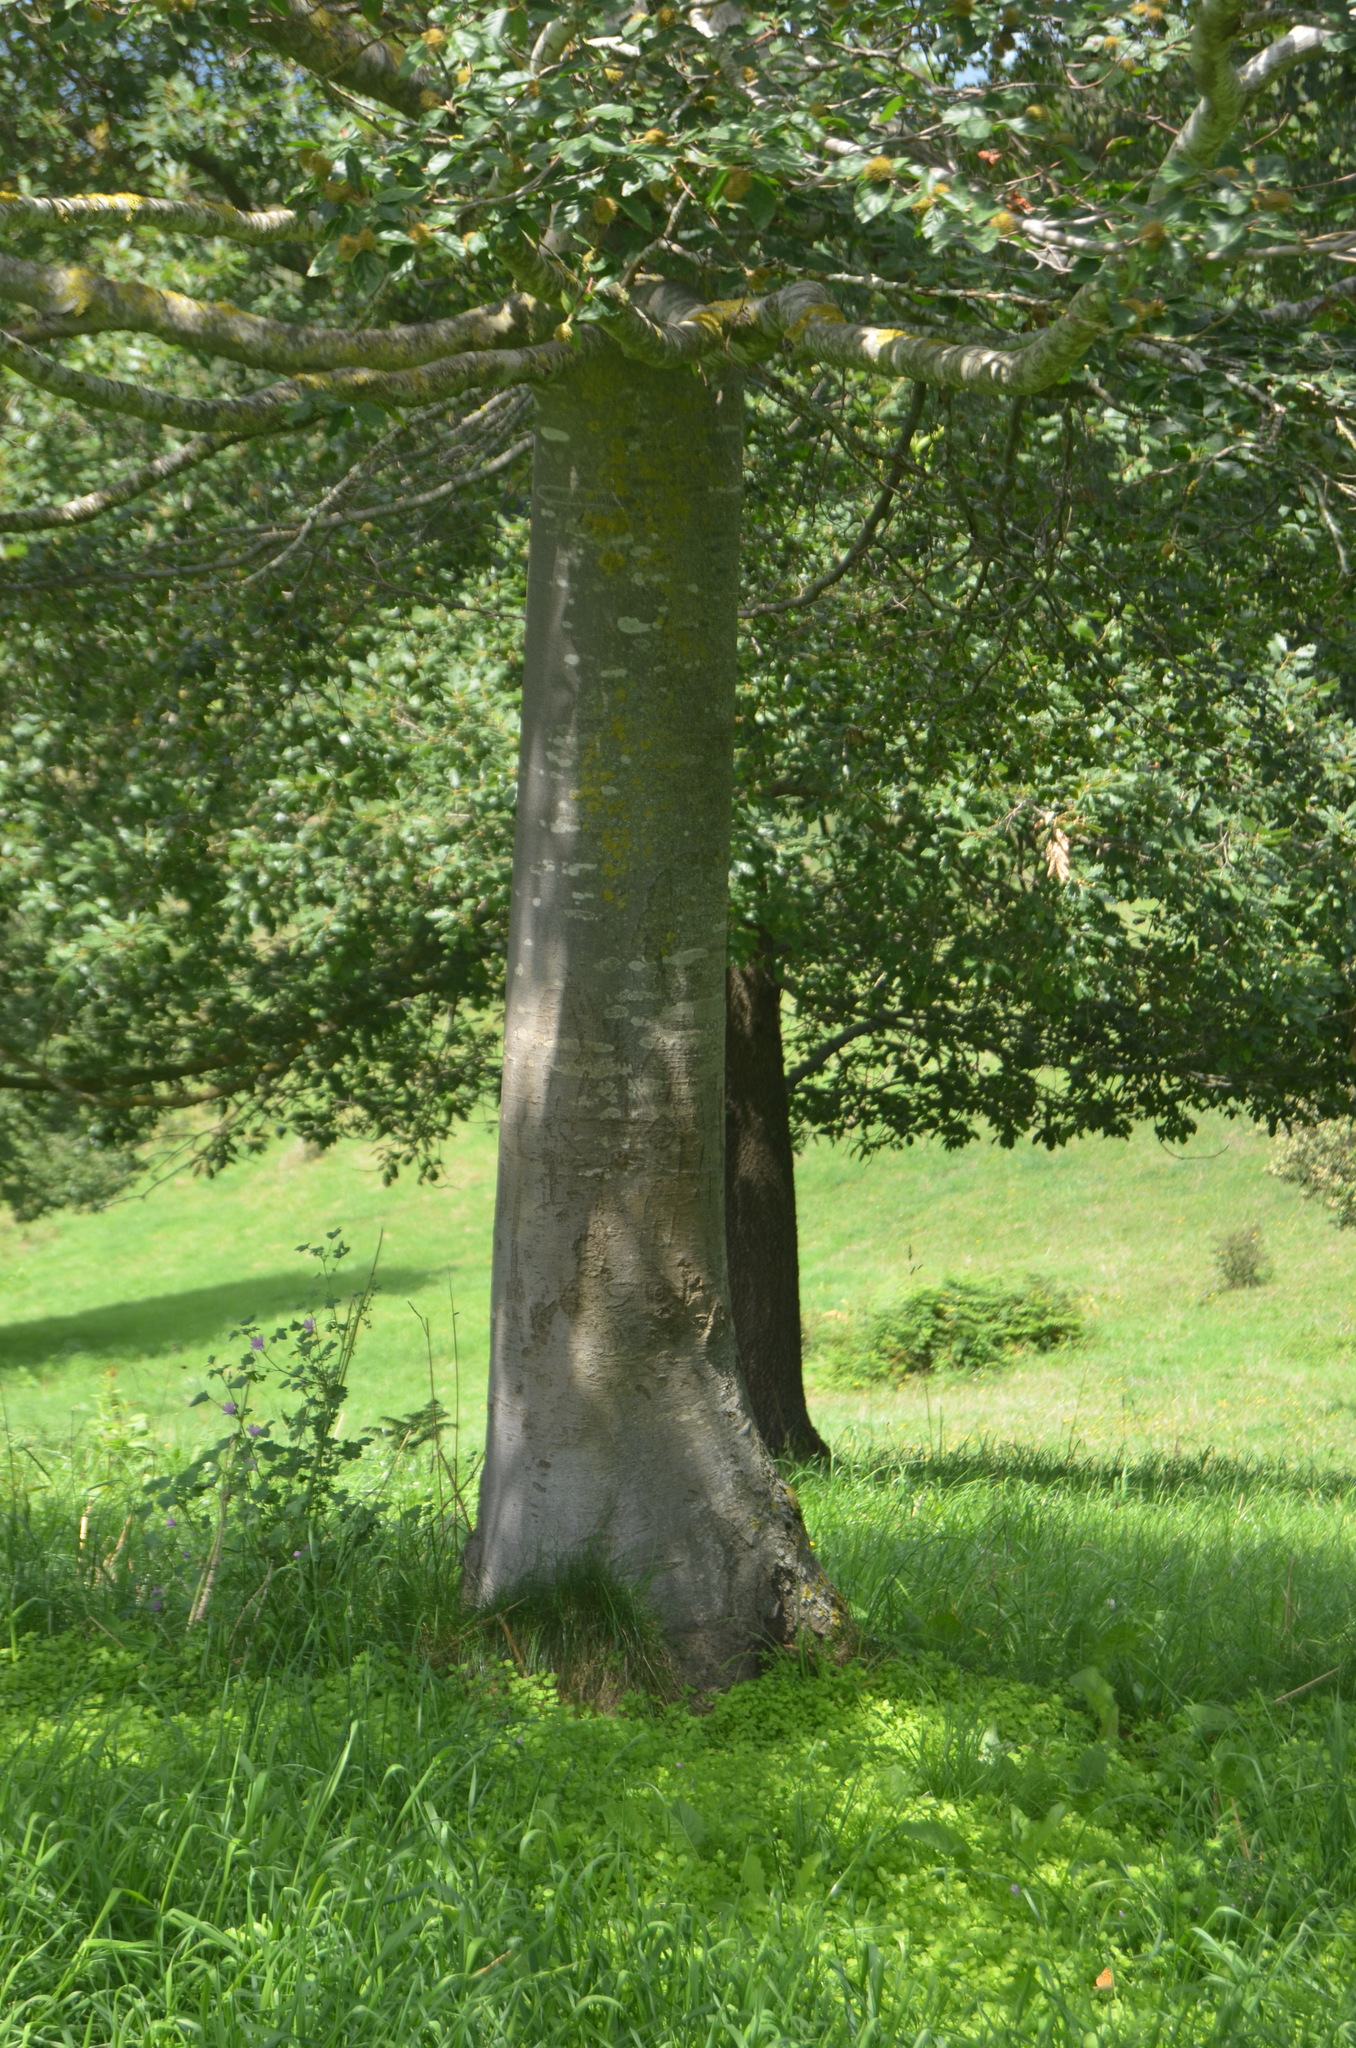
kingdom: Plantae
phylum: Tracheophyta
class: Magnoliopsida
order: Fagales
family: Fagaceae
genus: Fagus
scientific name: Fagus sylvatica
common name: Beech
